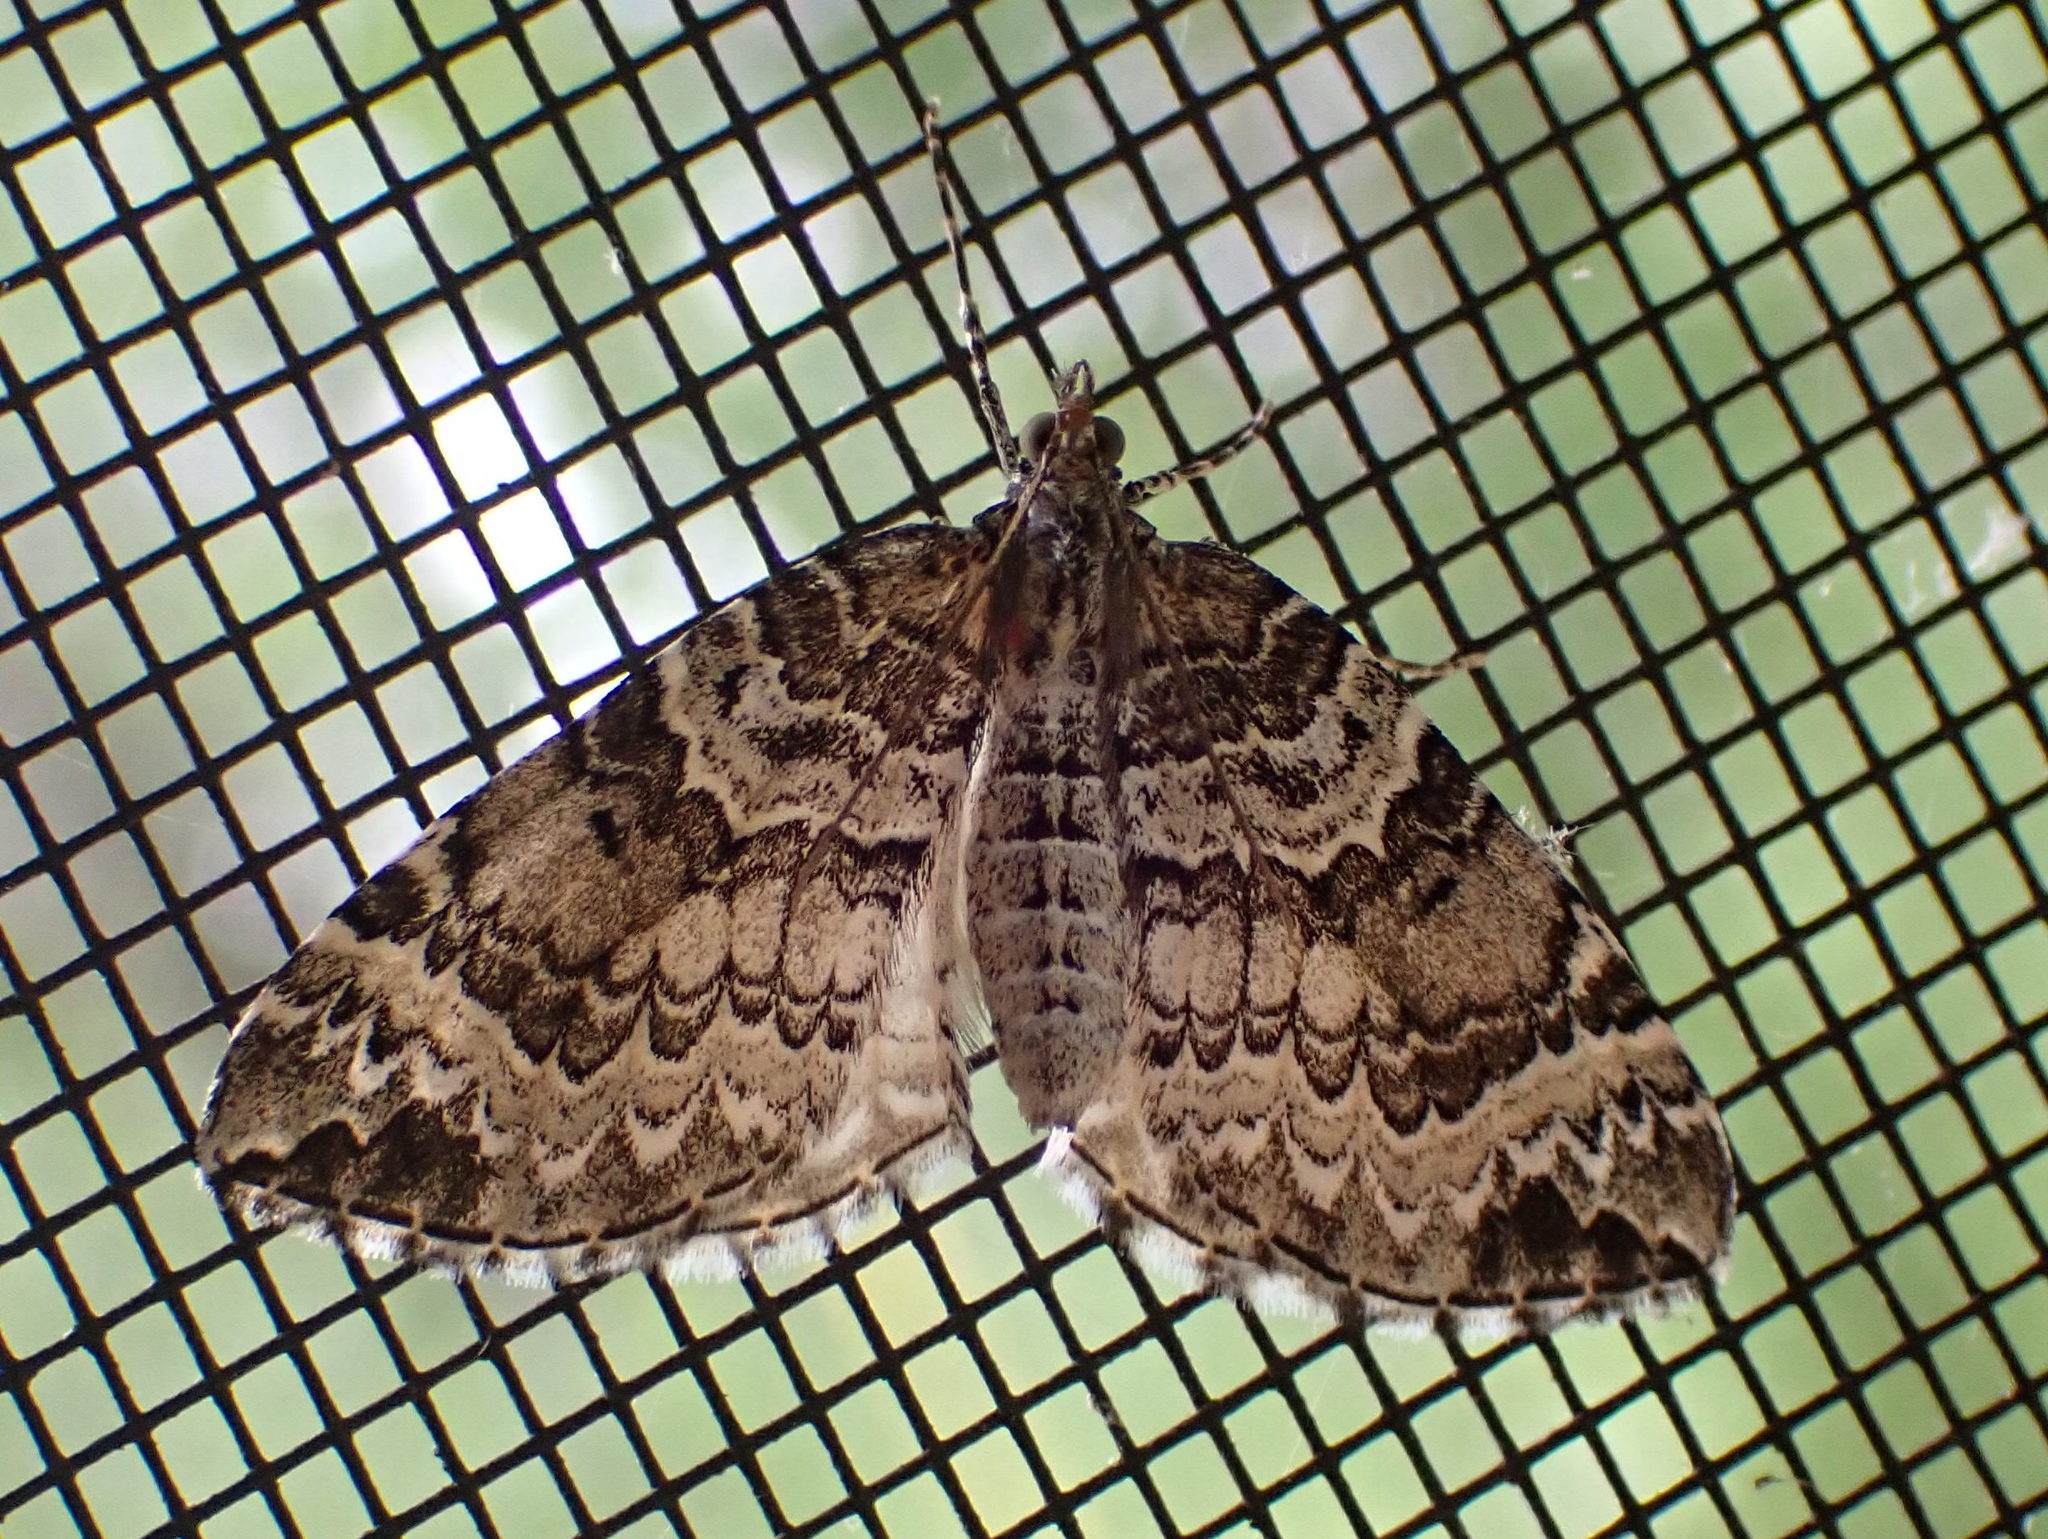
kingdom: Animalia
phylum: Arthropoda
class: Insecta
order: Lepidoptera
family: Geometridae
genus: Eulithis
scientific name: Eulithis explanata
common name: White eulithis
